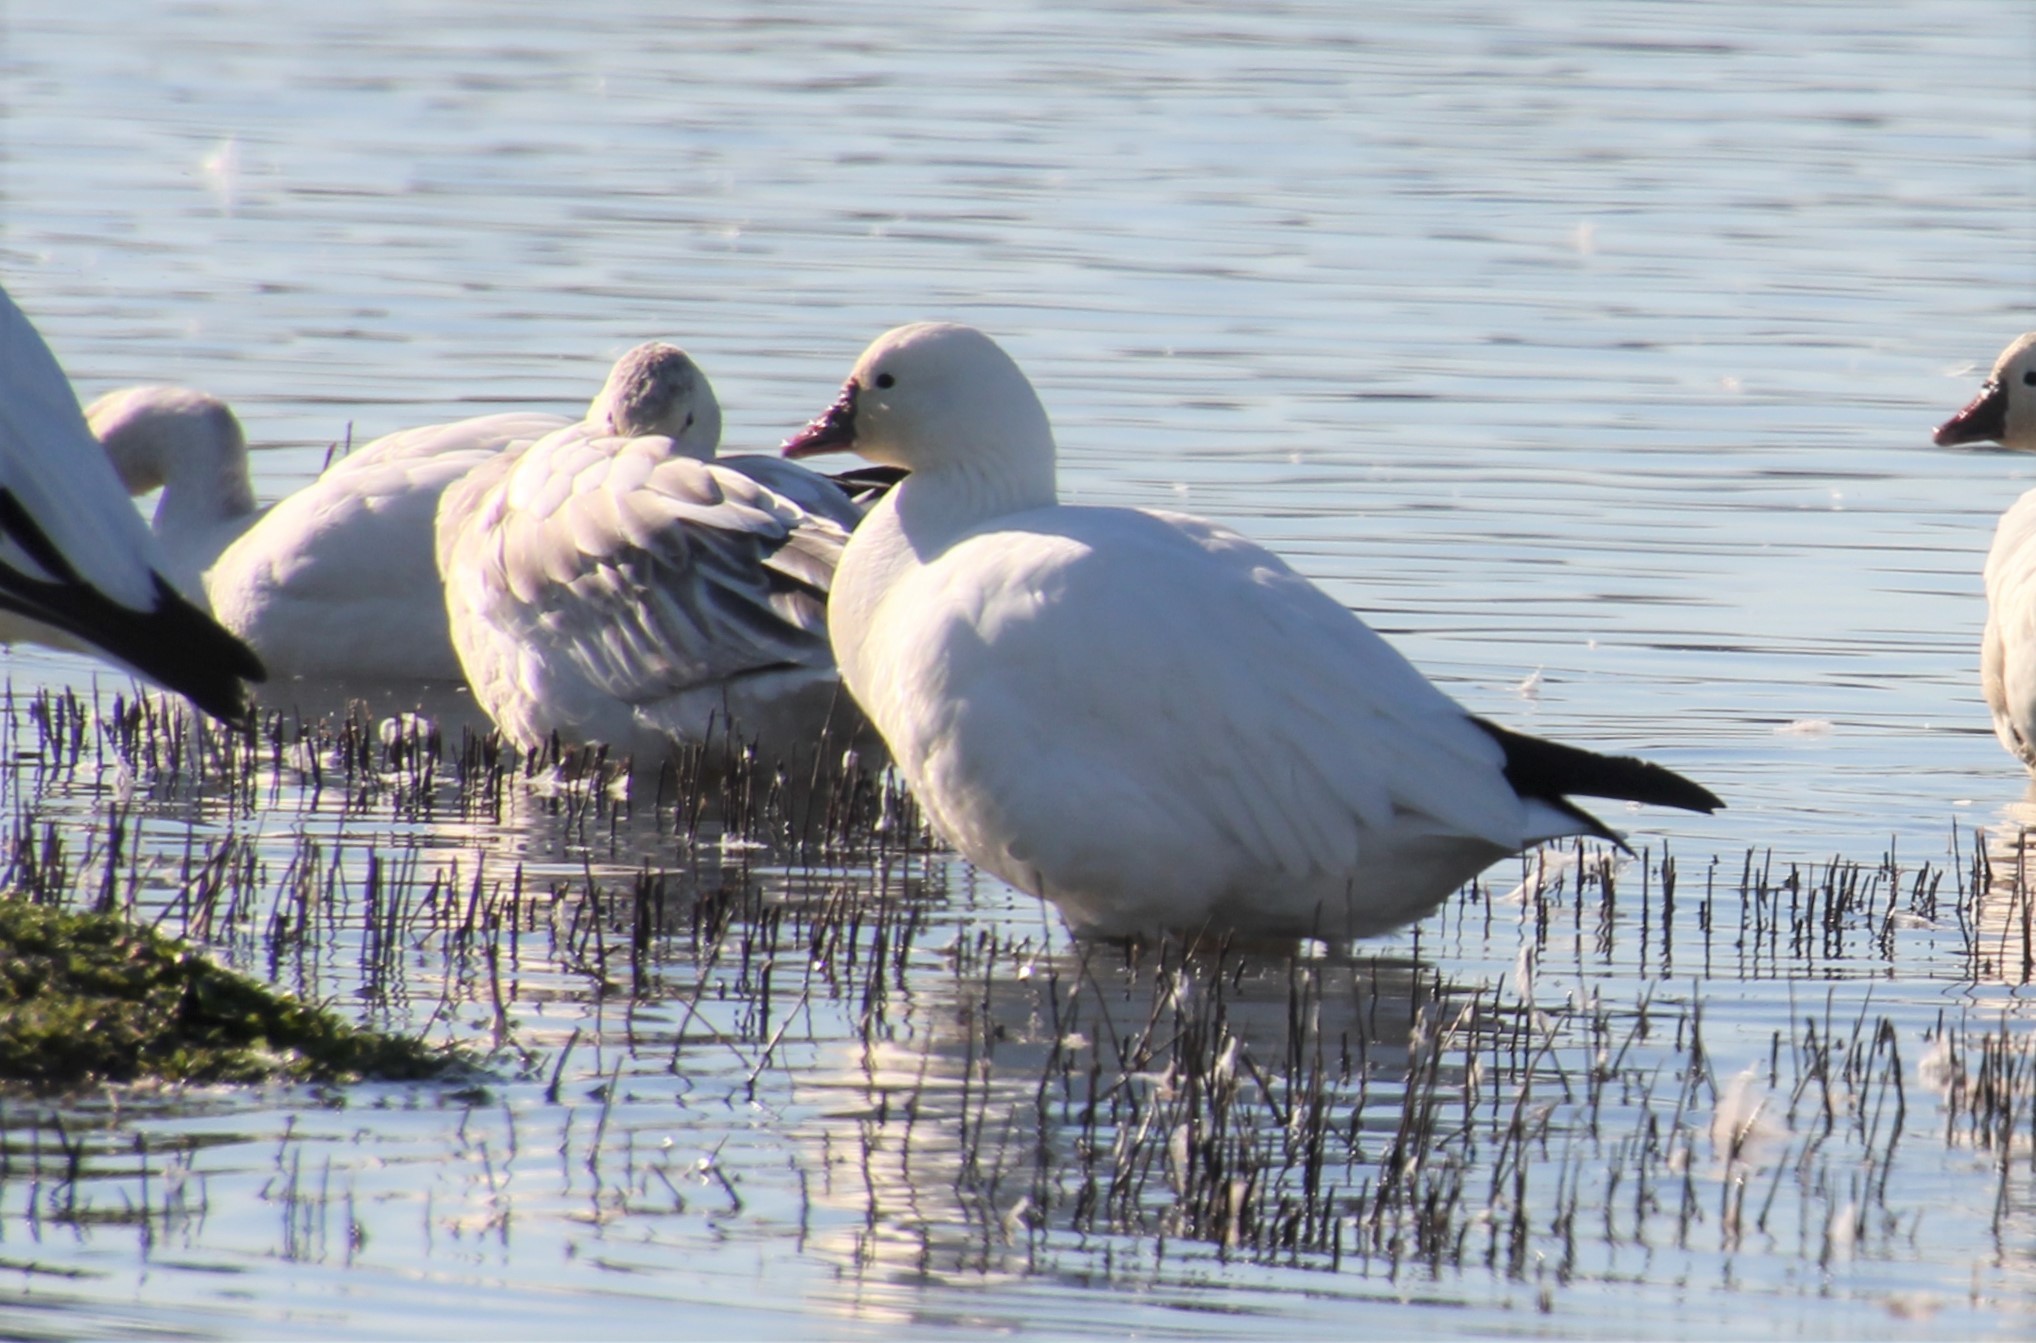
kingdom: Animalia
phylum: Chordata
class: Aves
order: Anseriformes
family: Anatidae
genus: Anser
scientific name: Anser rossii
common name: Ross's goose
